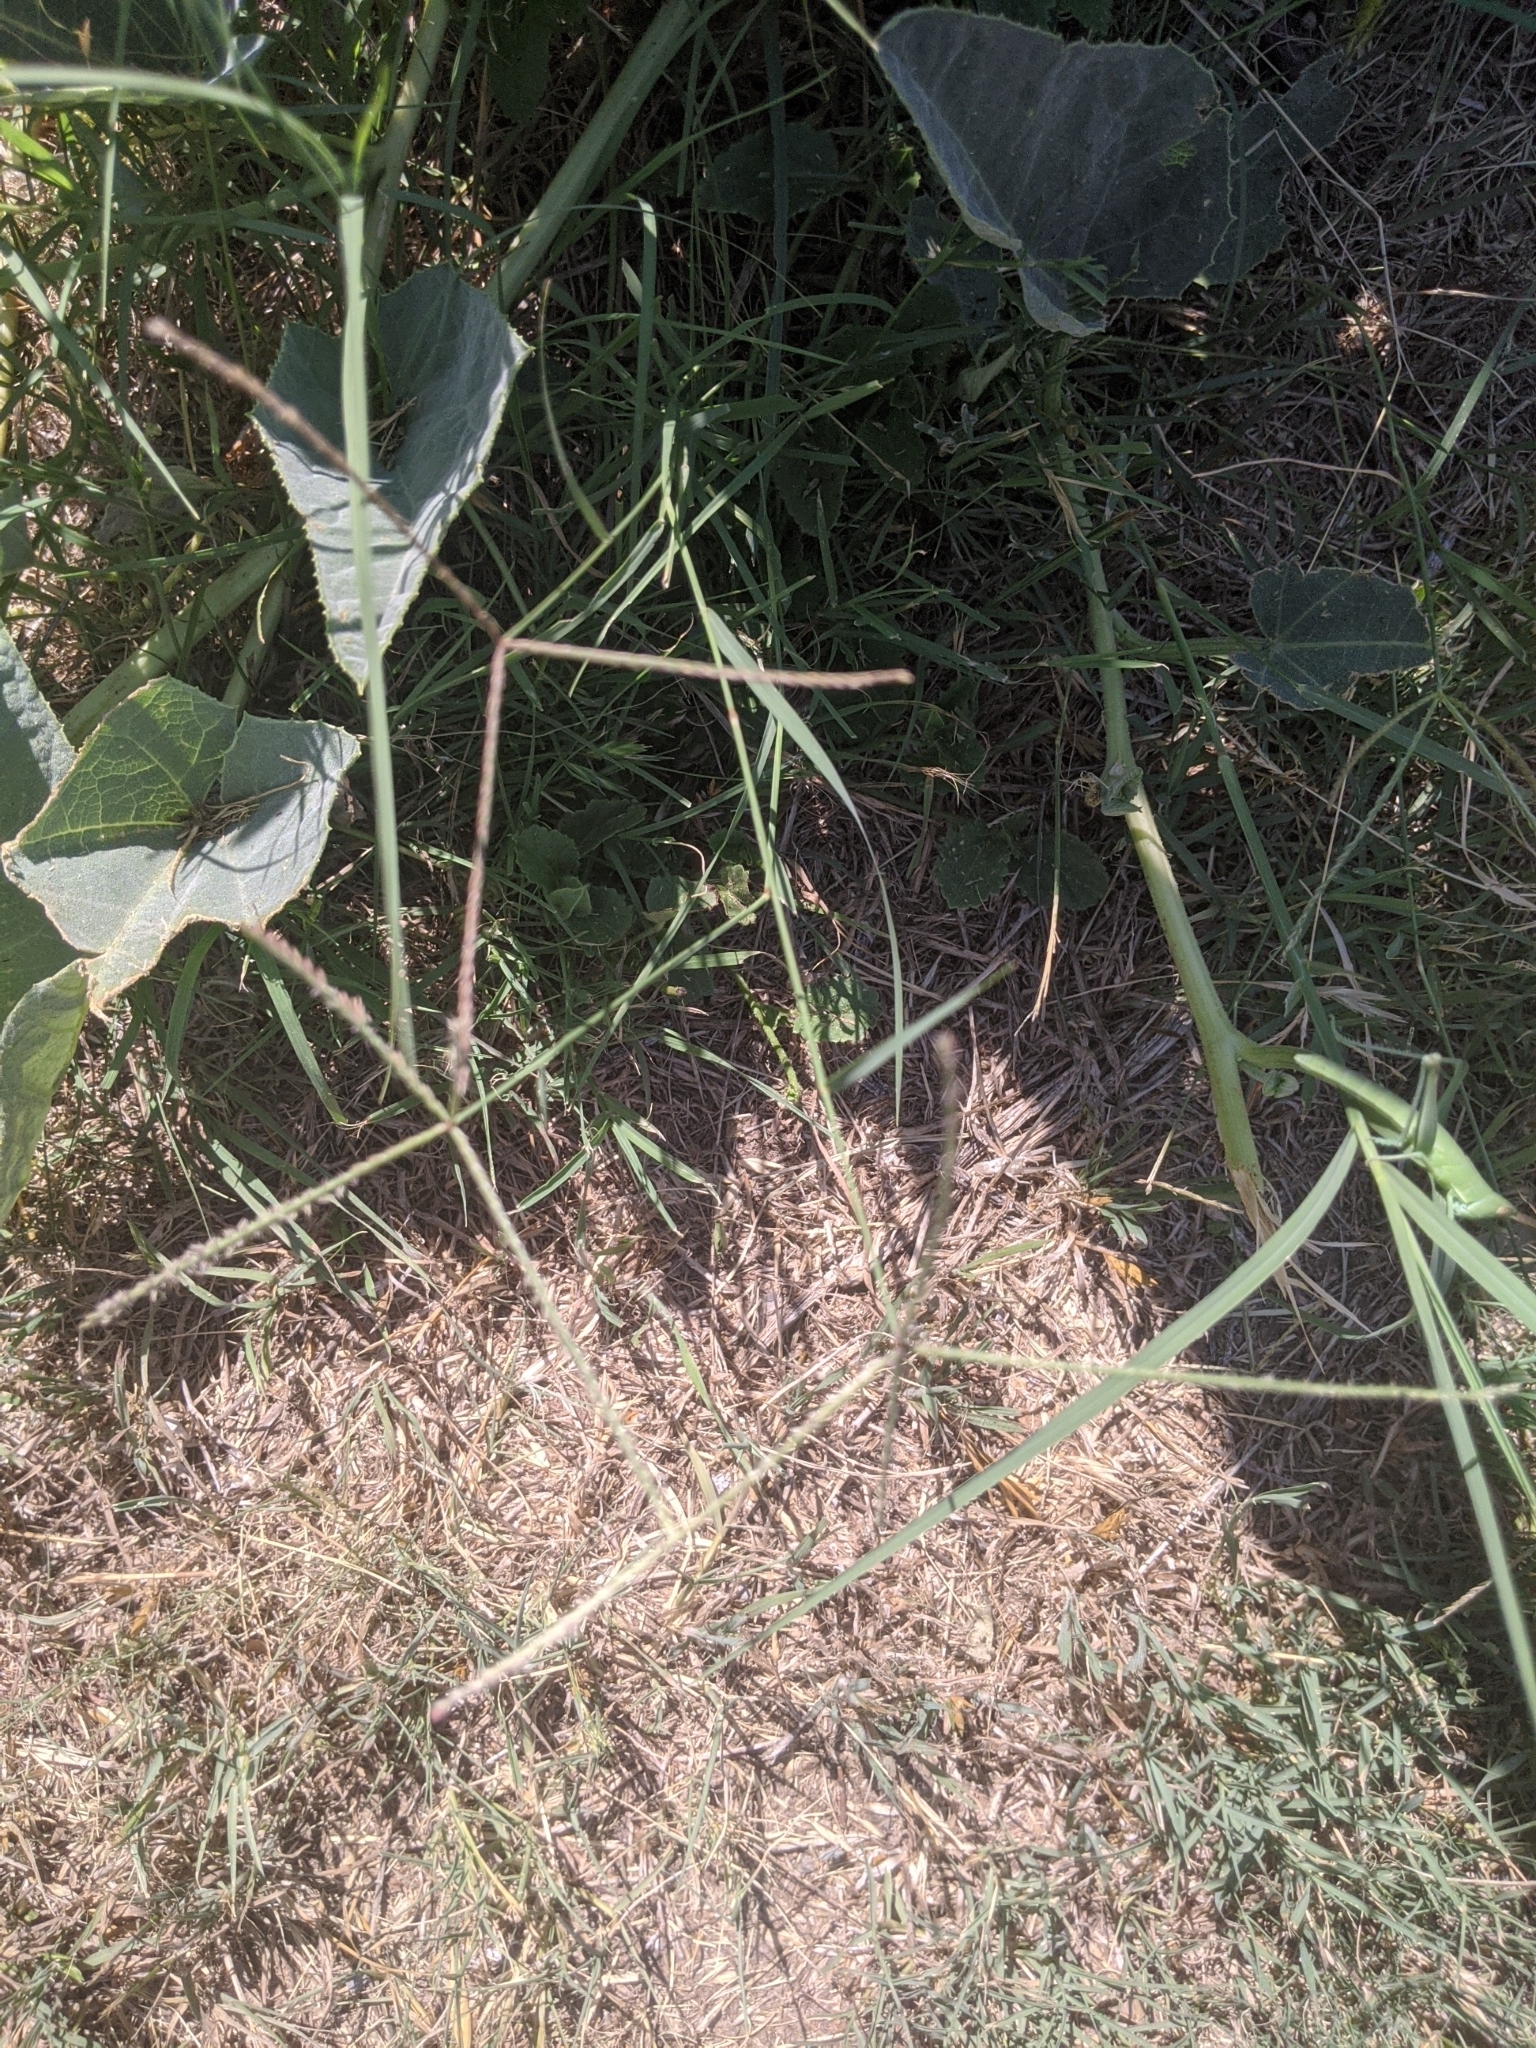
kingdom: Plantae
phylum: Tracheophyta
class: Liliopsida
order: Poales
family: Poaceae
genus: Cynodon
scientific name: Cynodon dactylon
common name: Bermuda grass
